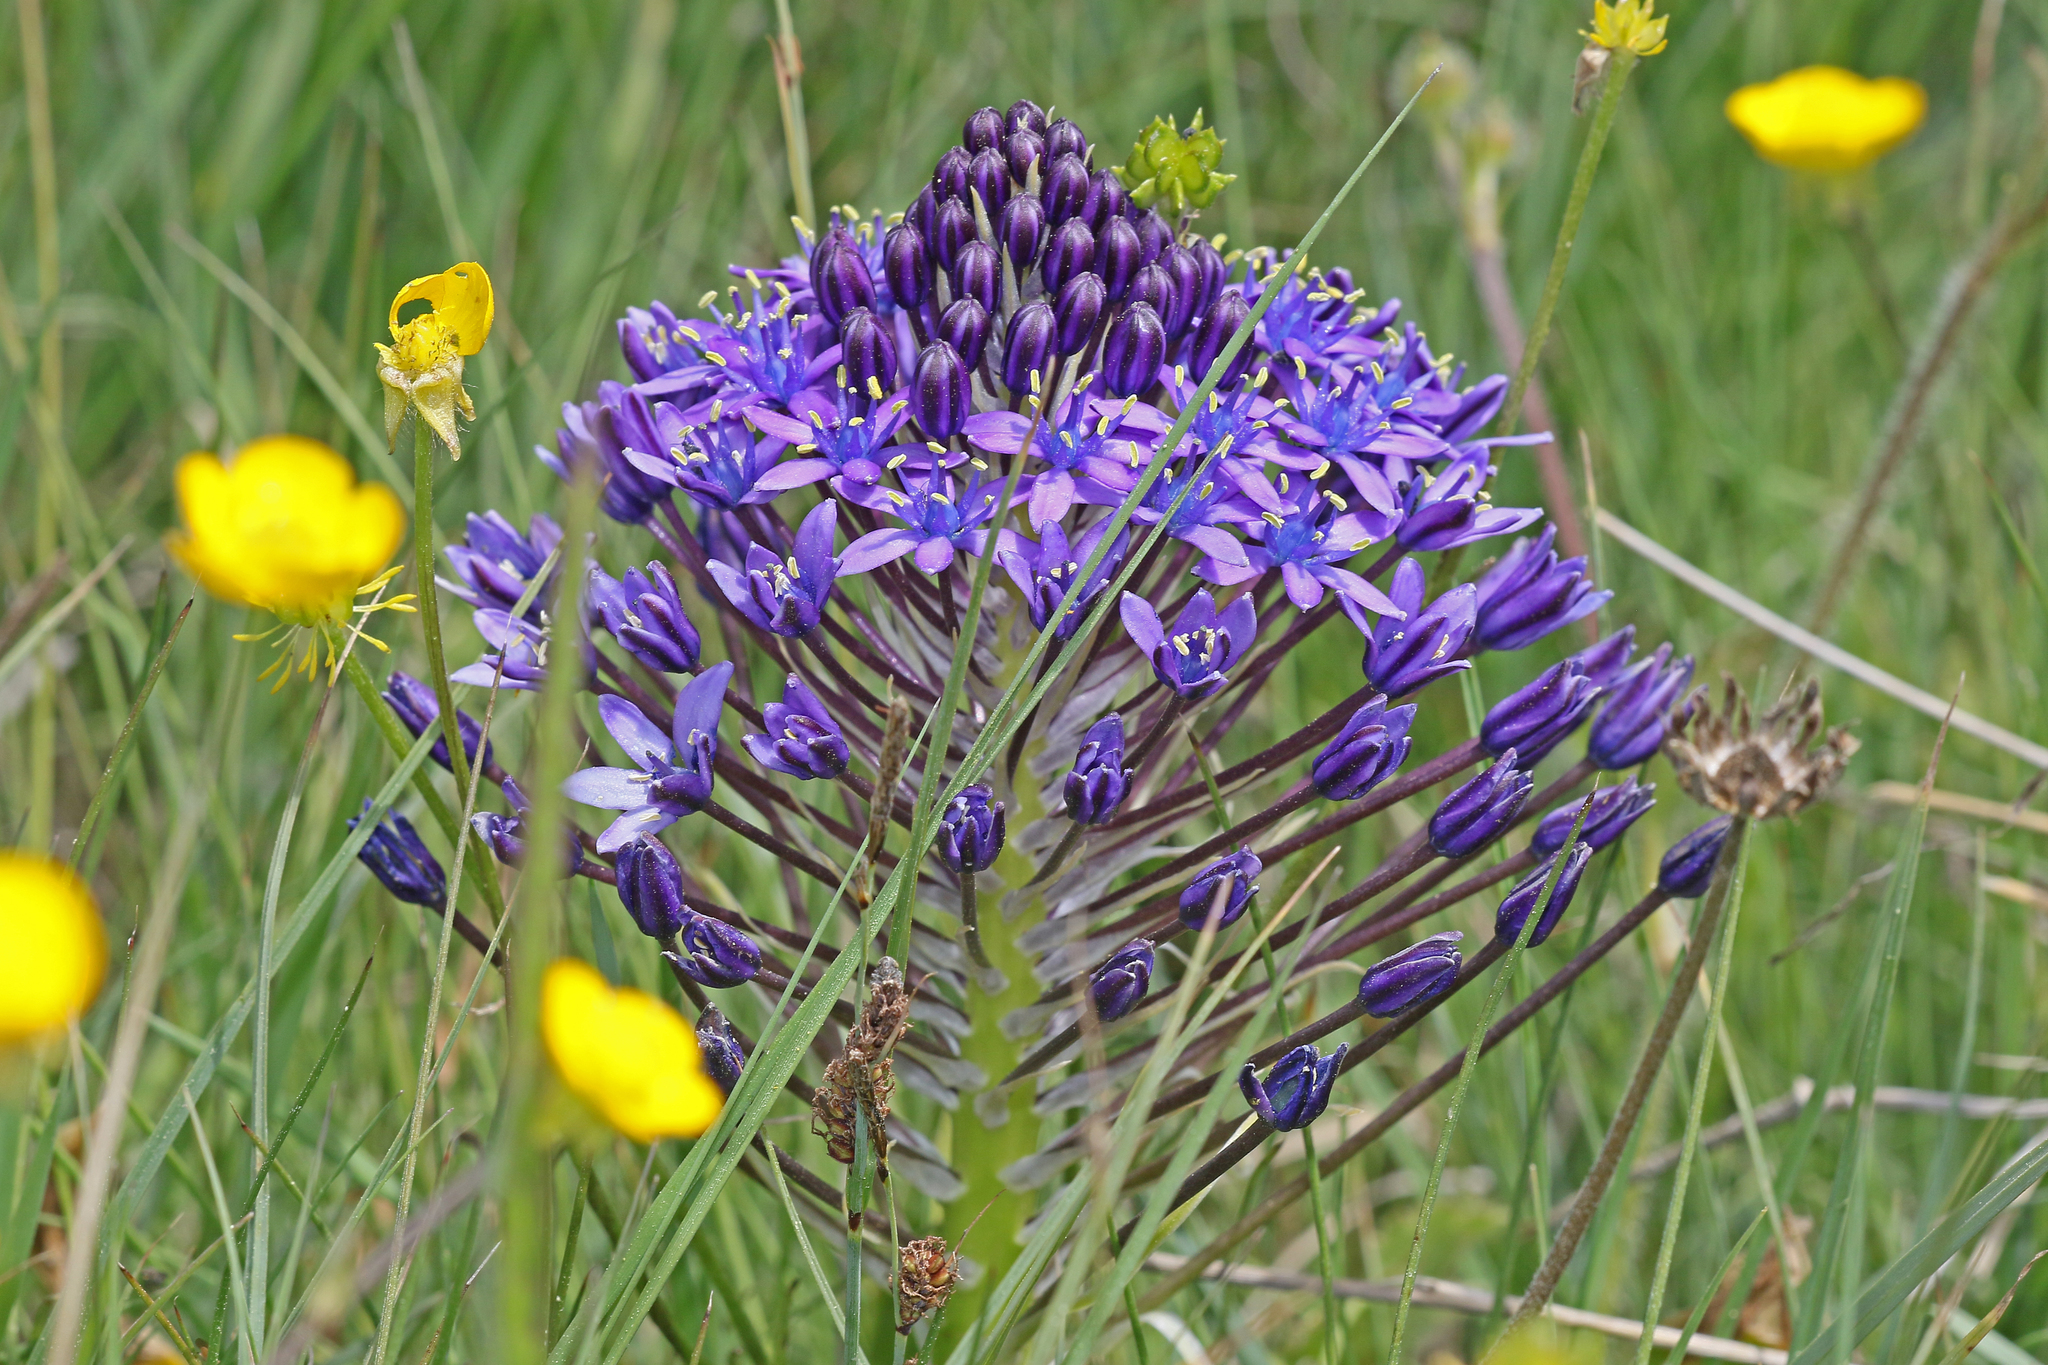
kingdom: Plantae
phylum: Tracheophyta
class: Liliopsida
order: Asparagales
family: Asparagaceae
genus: Scilla
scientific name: Scilla peruviana
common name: Portuguese squill
